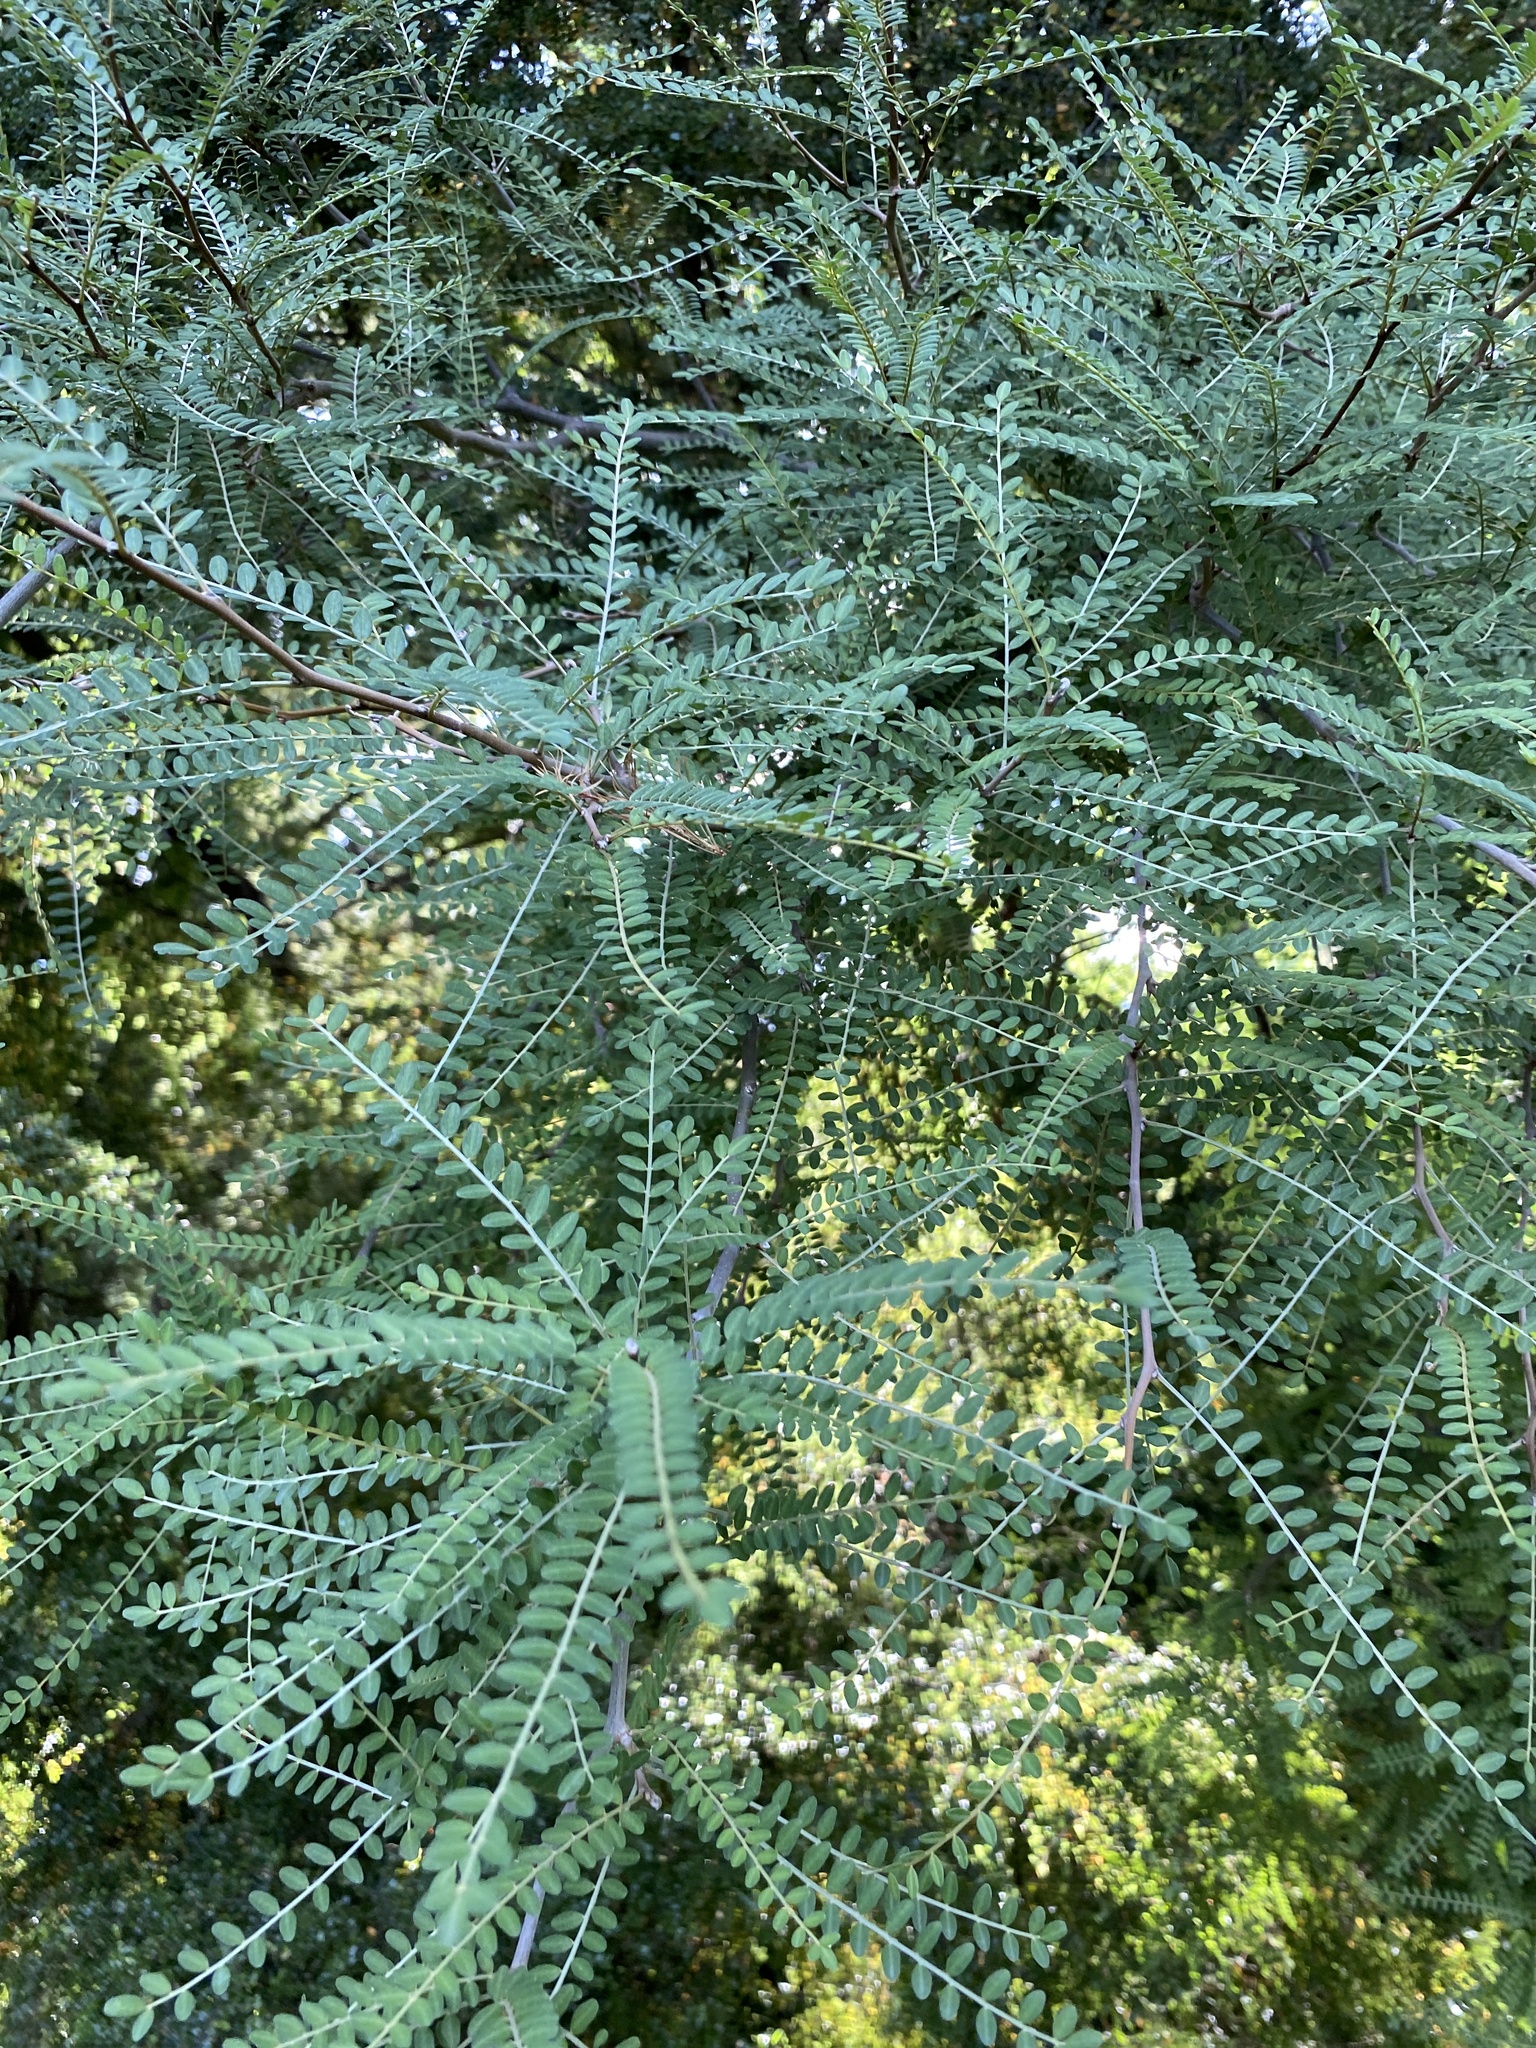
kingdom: Plantae
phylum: Tracheophyta
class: Magnoliopsida
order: Fabales
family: Fabaceae
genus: Sophora
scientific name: Sophora microphylla
